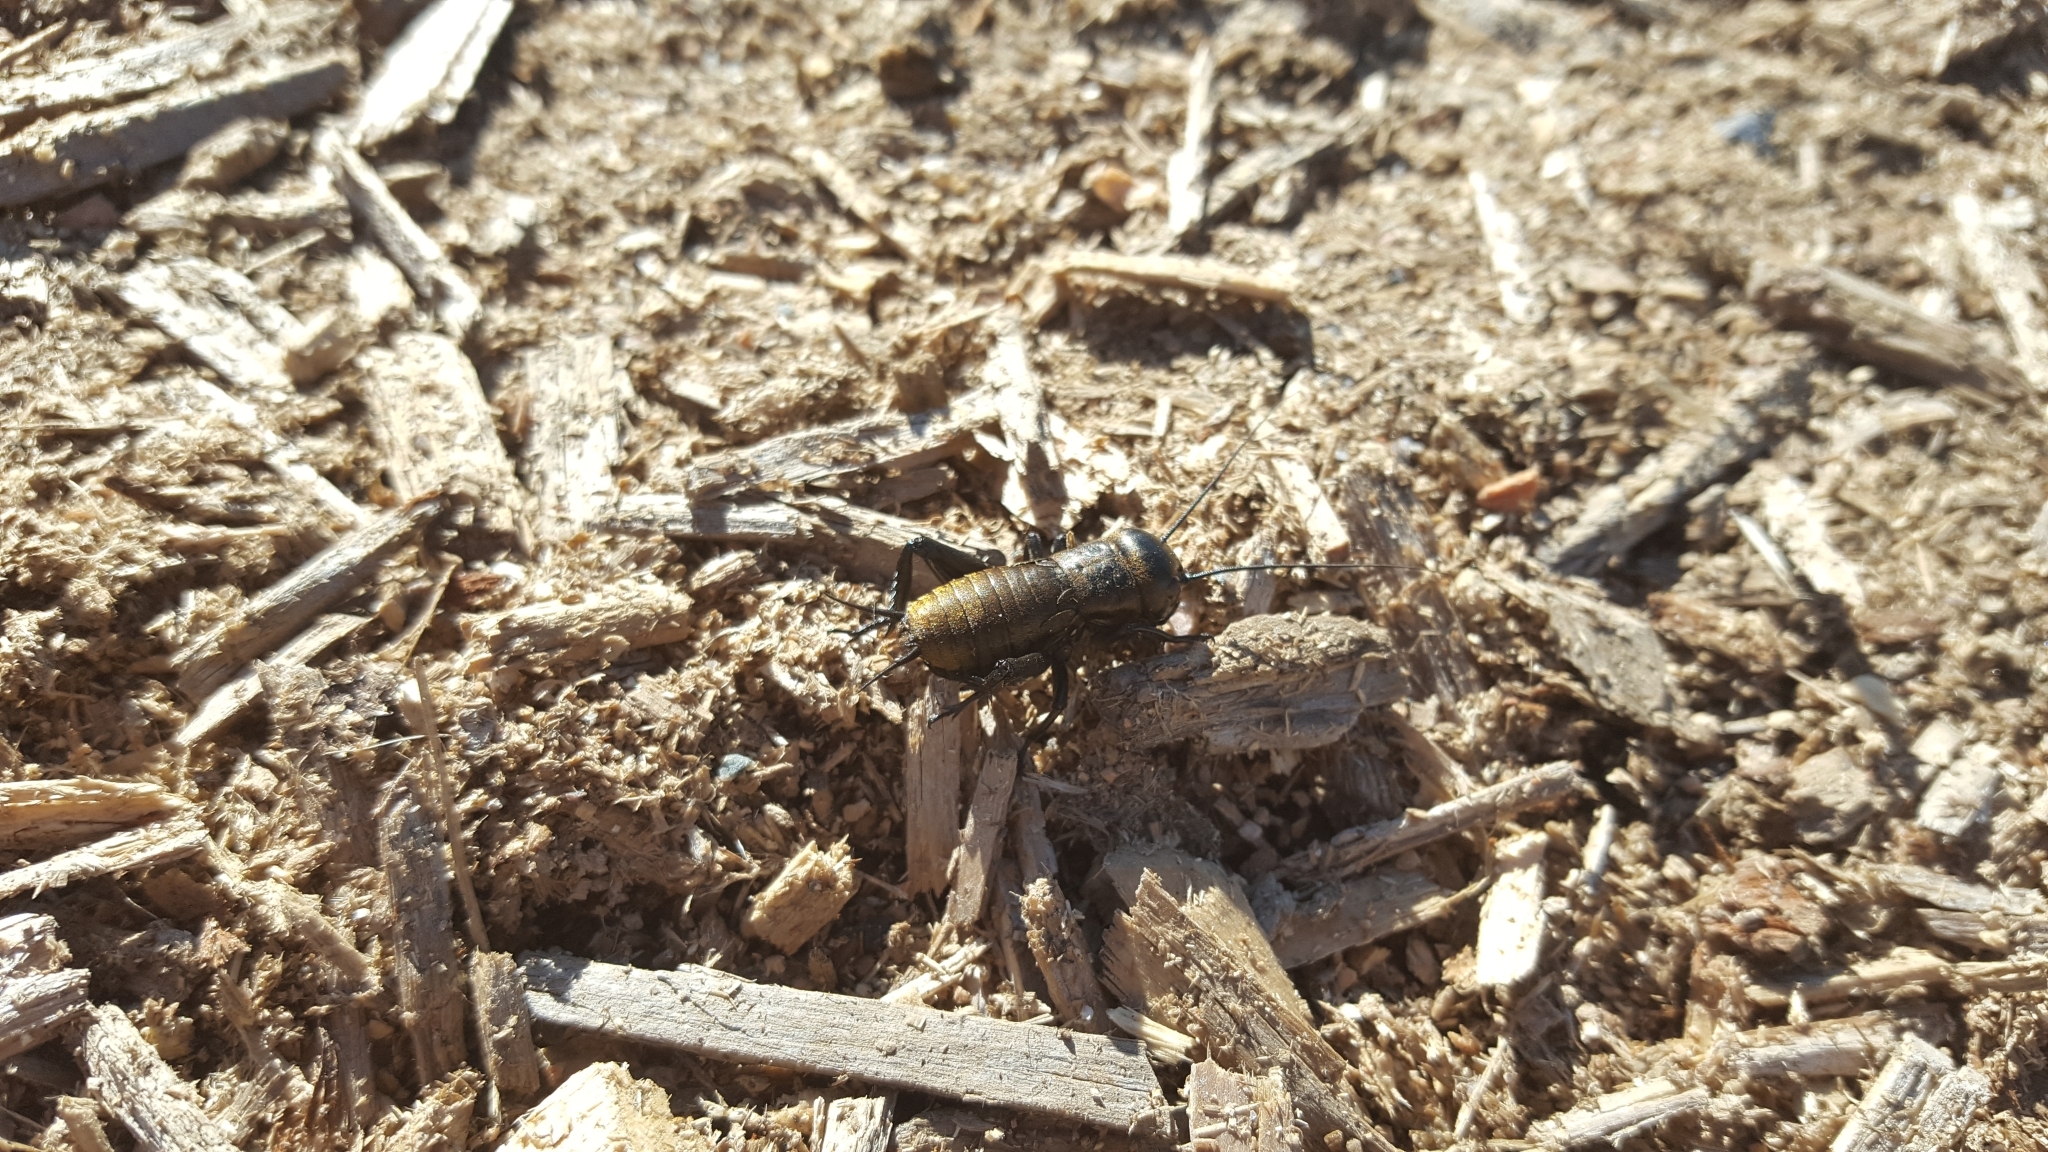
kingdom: Animalia
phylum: Arthropoda
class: Insecta
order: Orthoptera
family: Gryllidae
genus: Gryllus
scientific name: Gryllus campestris
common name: Field cricket
